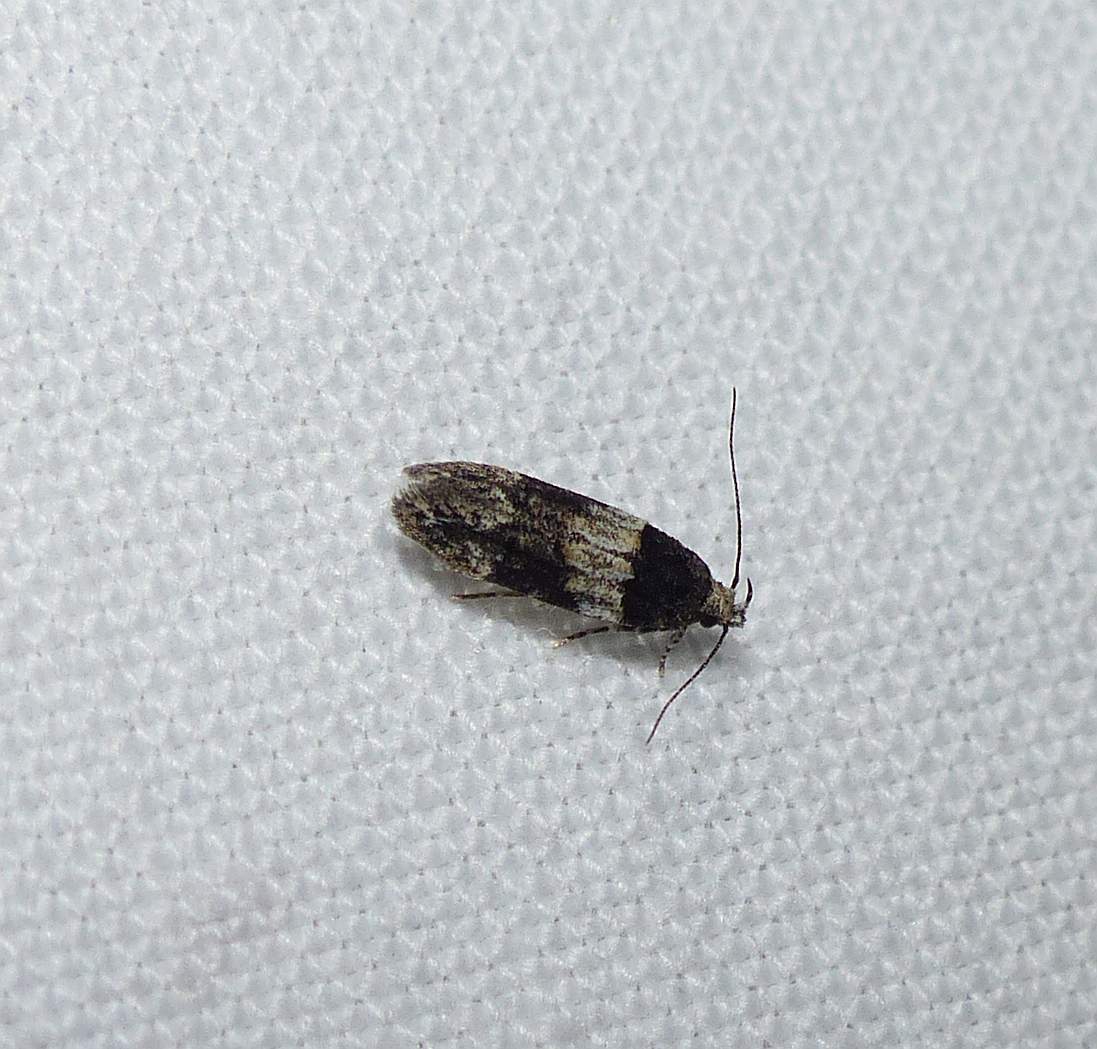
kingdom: Animalia
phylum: Arthropoda
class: Insecta
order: Lepidoptera
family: Gelechiidae
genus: Pubitelphusa
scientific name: Pubitelphusa latifasciella
